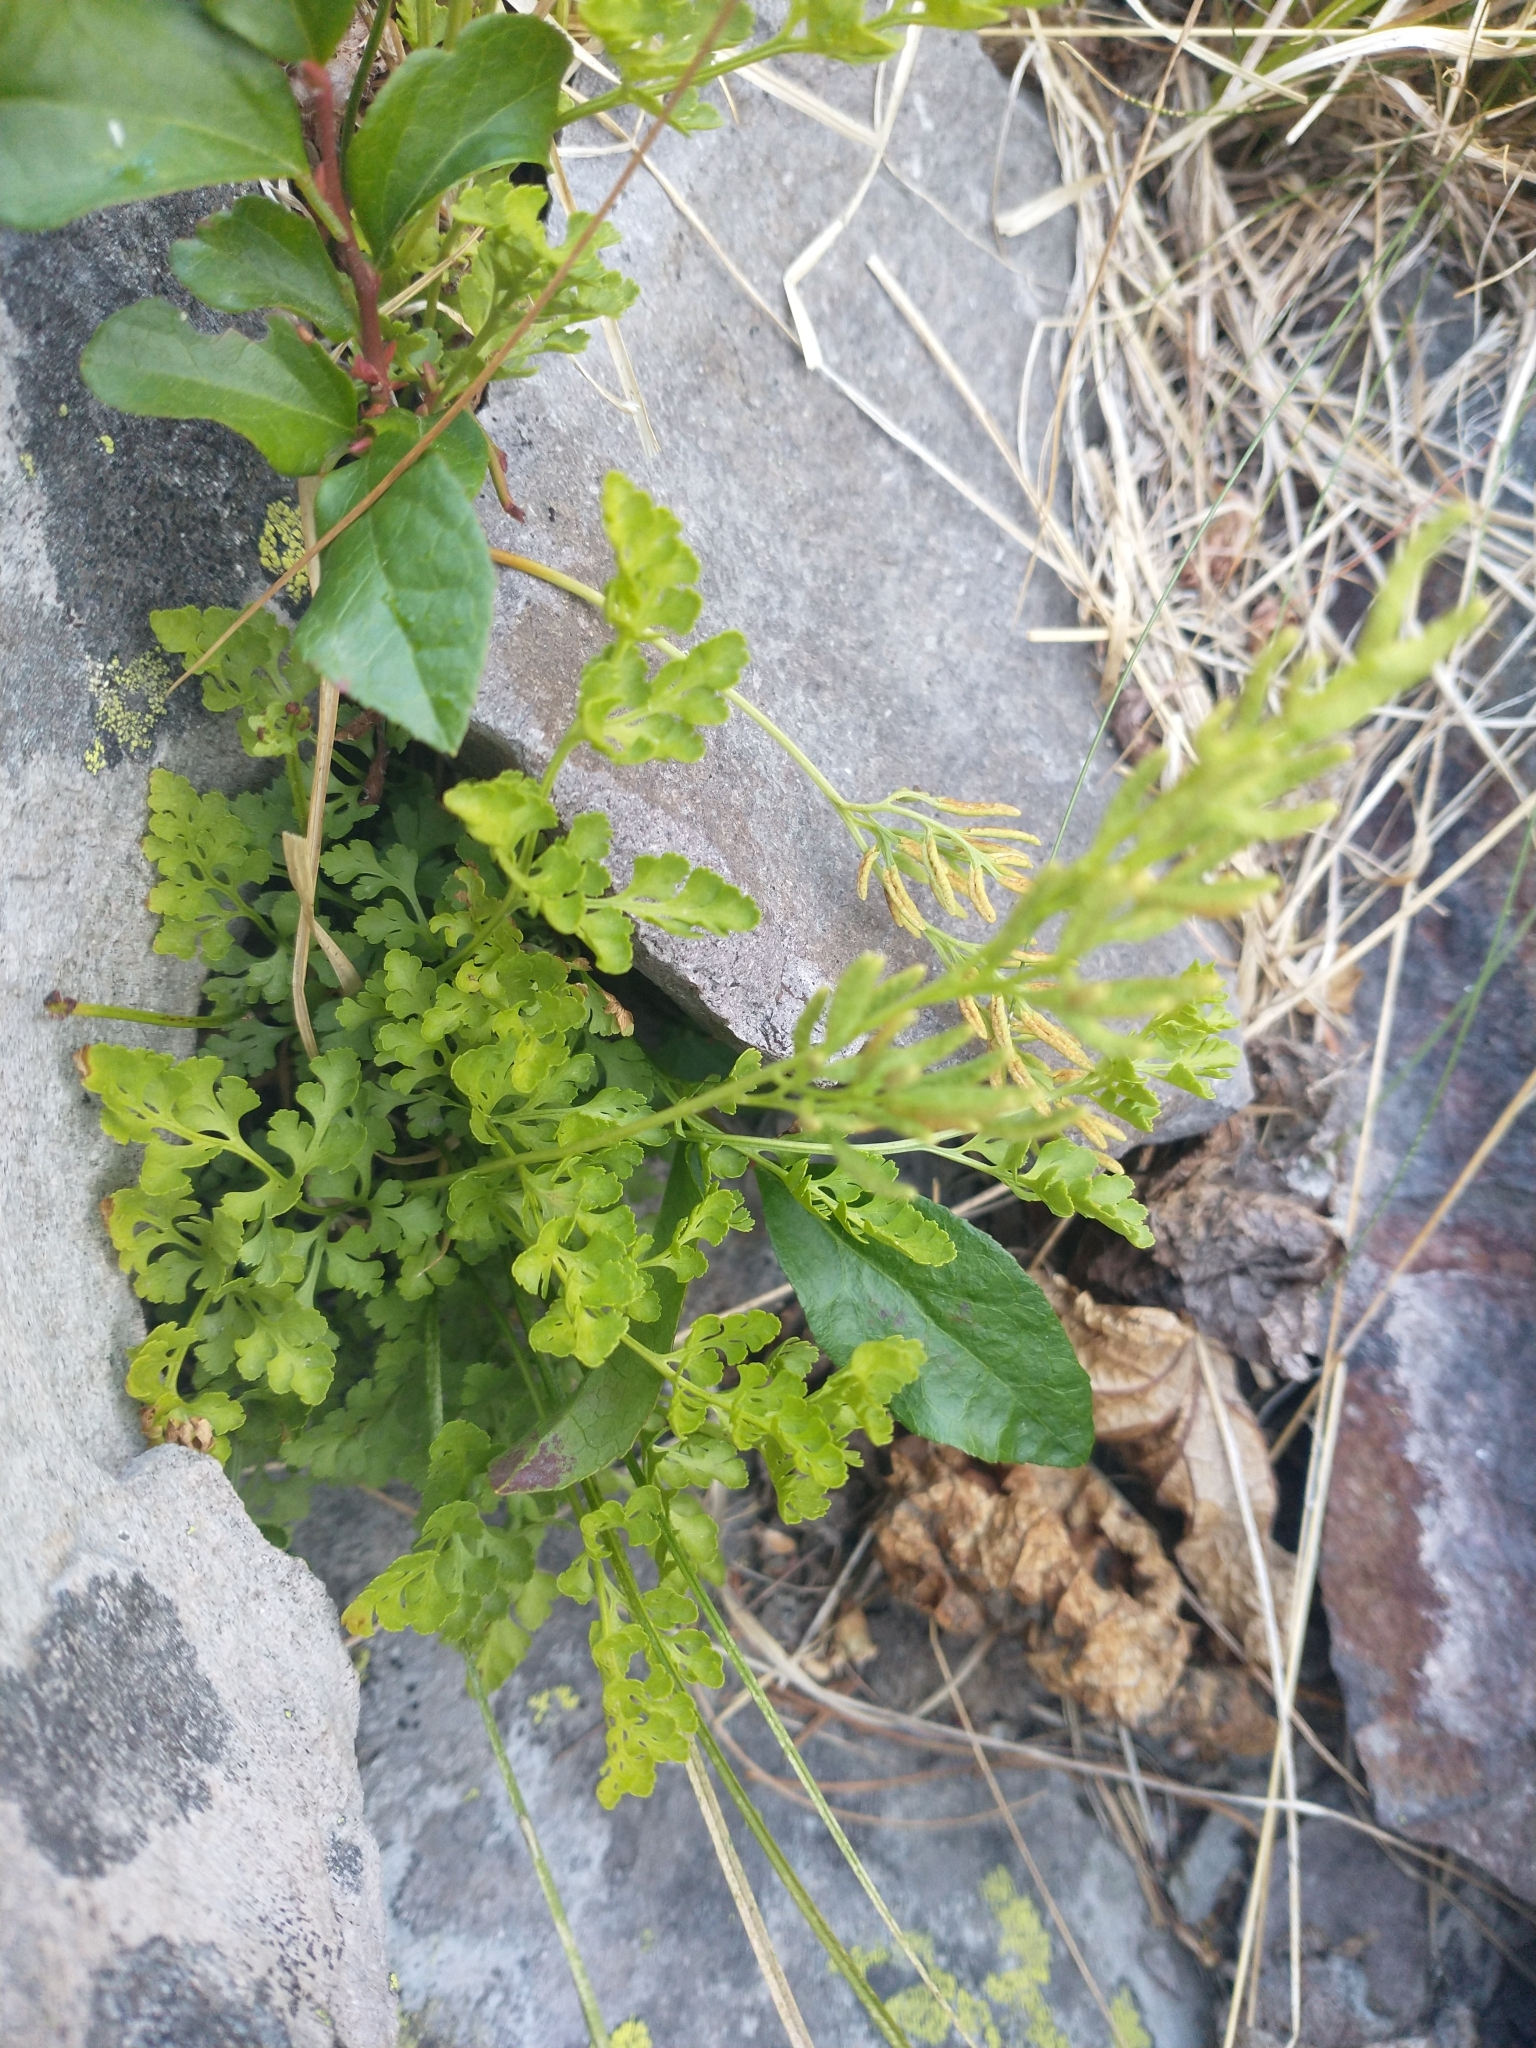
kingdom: Plantae
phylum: Tracheophyta
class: Polypodiopsida
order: Polypodiales
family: Pteridaceae
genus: Cryptogramma
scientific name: Cryptogramma cascadensis
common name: Cascade parsley fern
